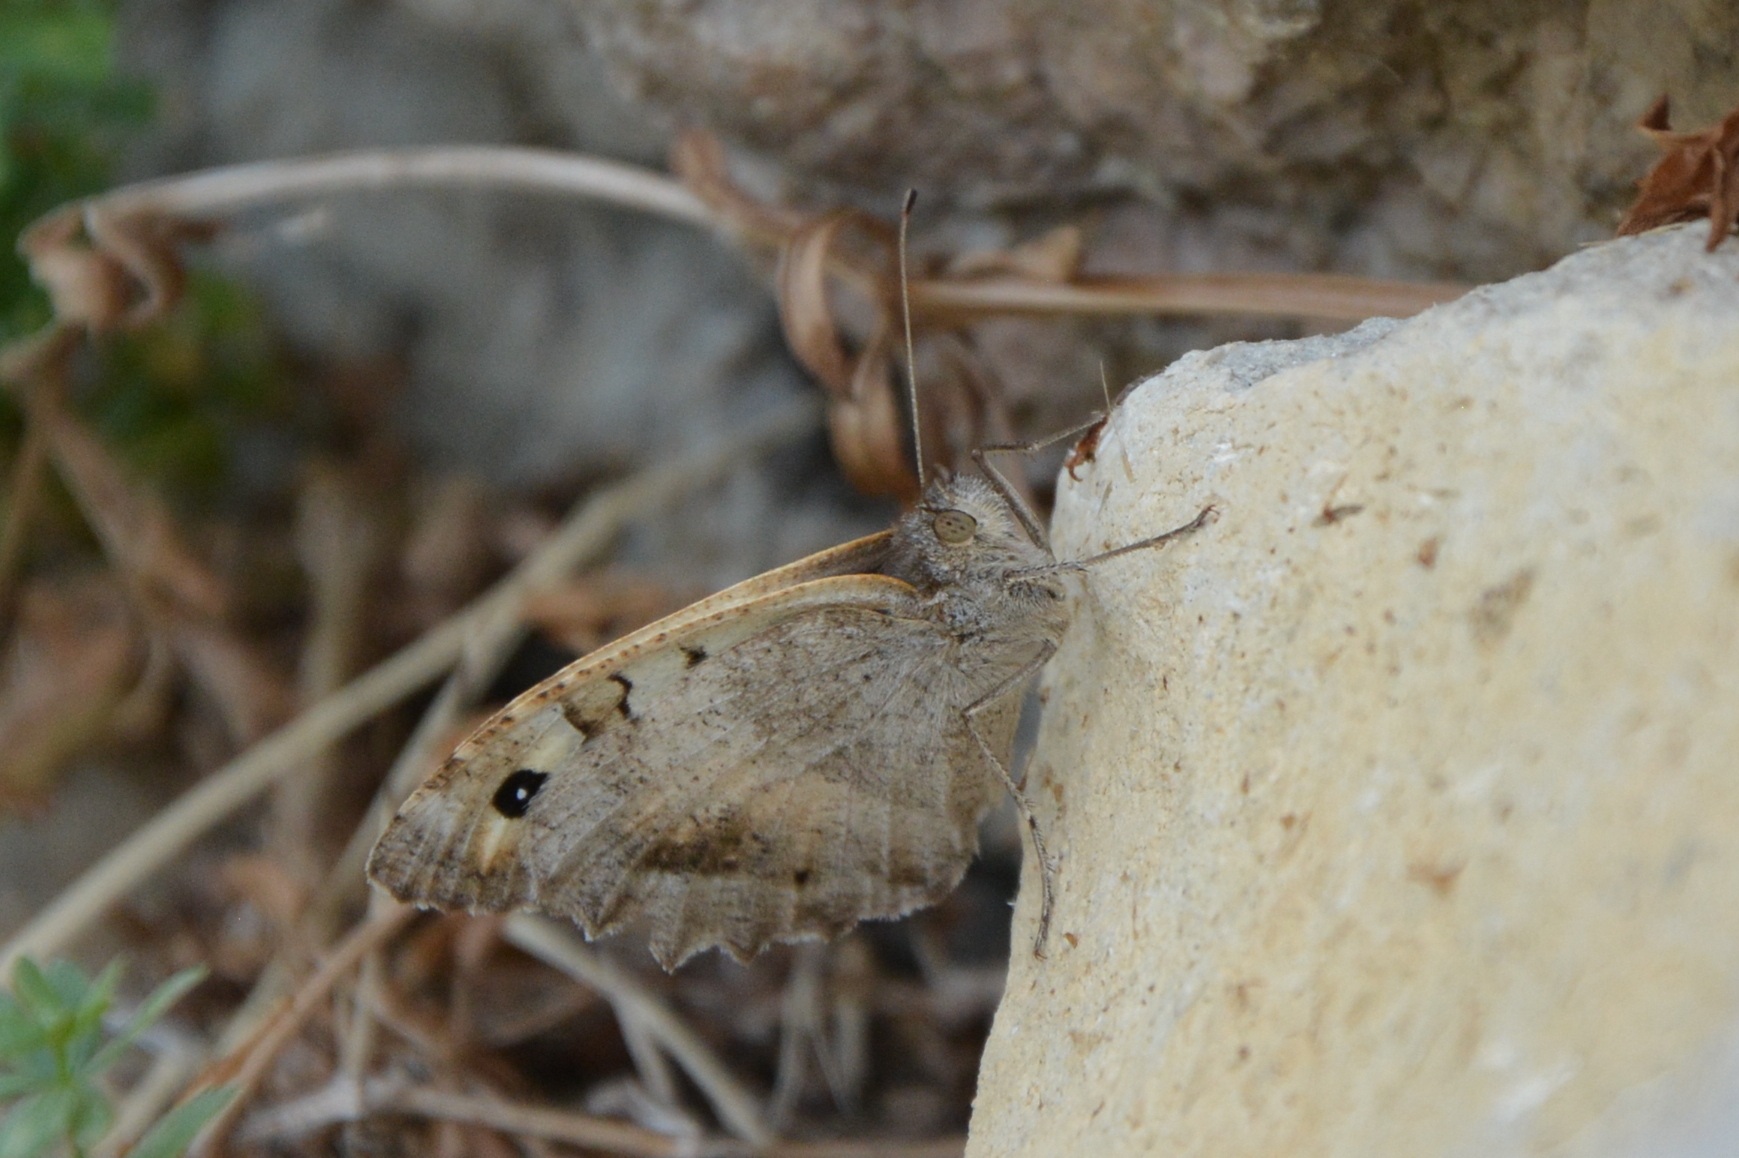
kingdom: Animalia
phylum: Arthropoda
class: Insecta
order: Lepidoptera
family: Nymphalidae
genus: Satyrus
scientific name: Satyrus briseis
